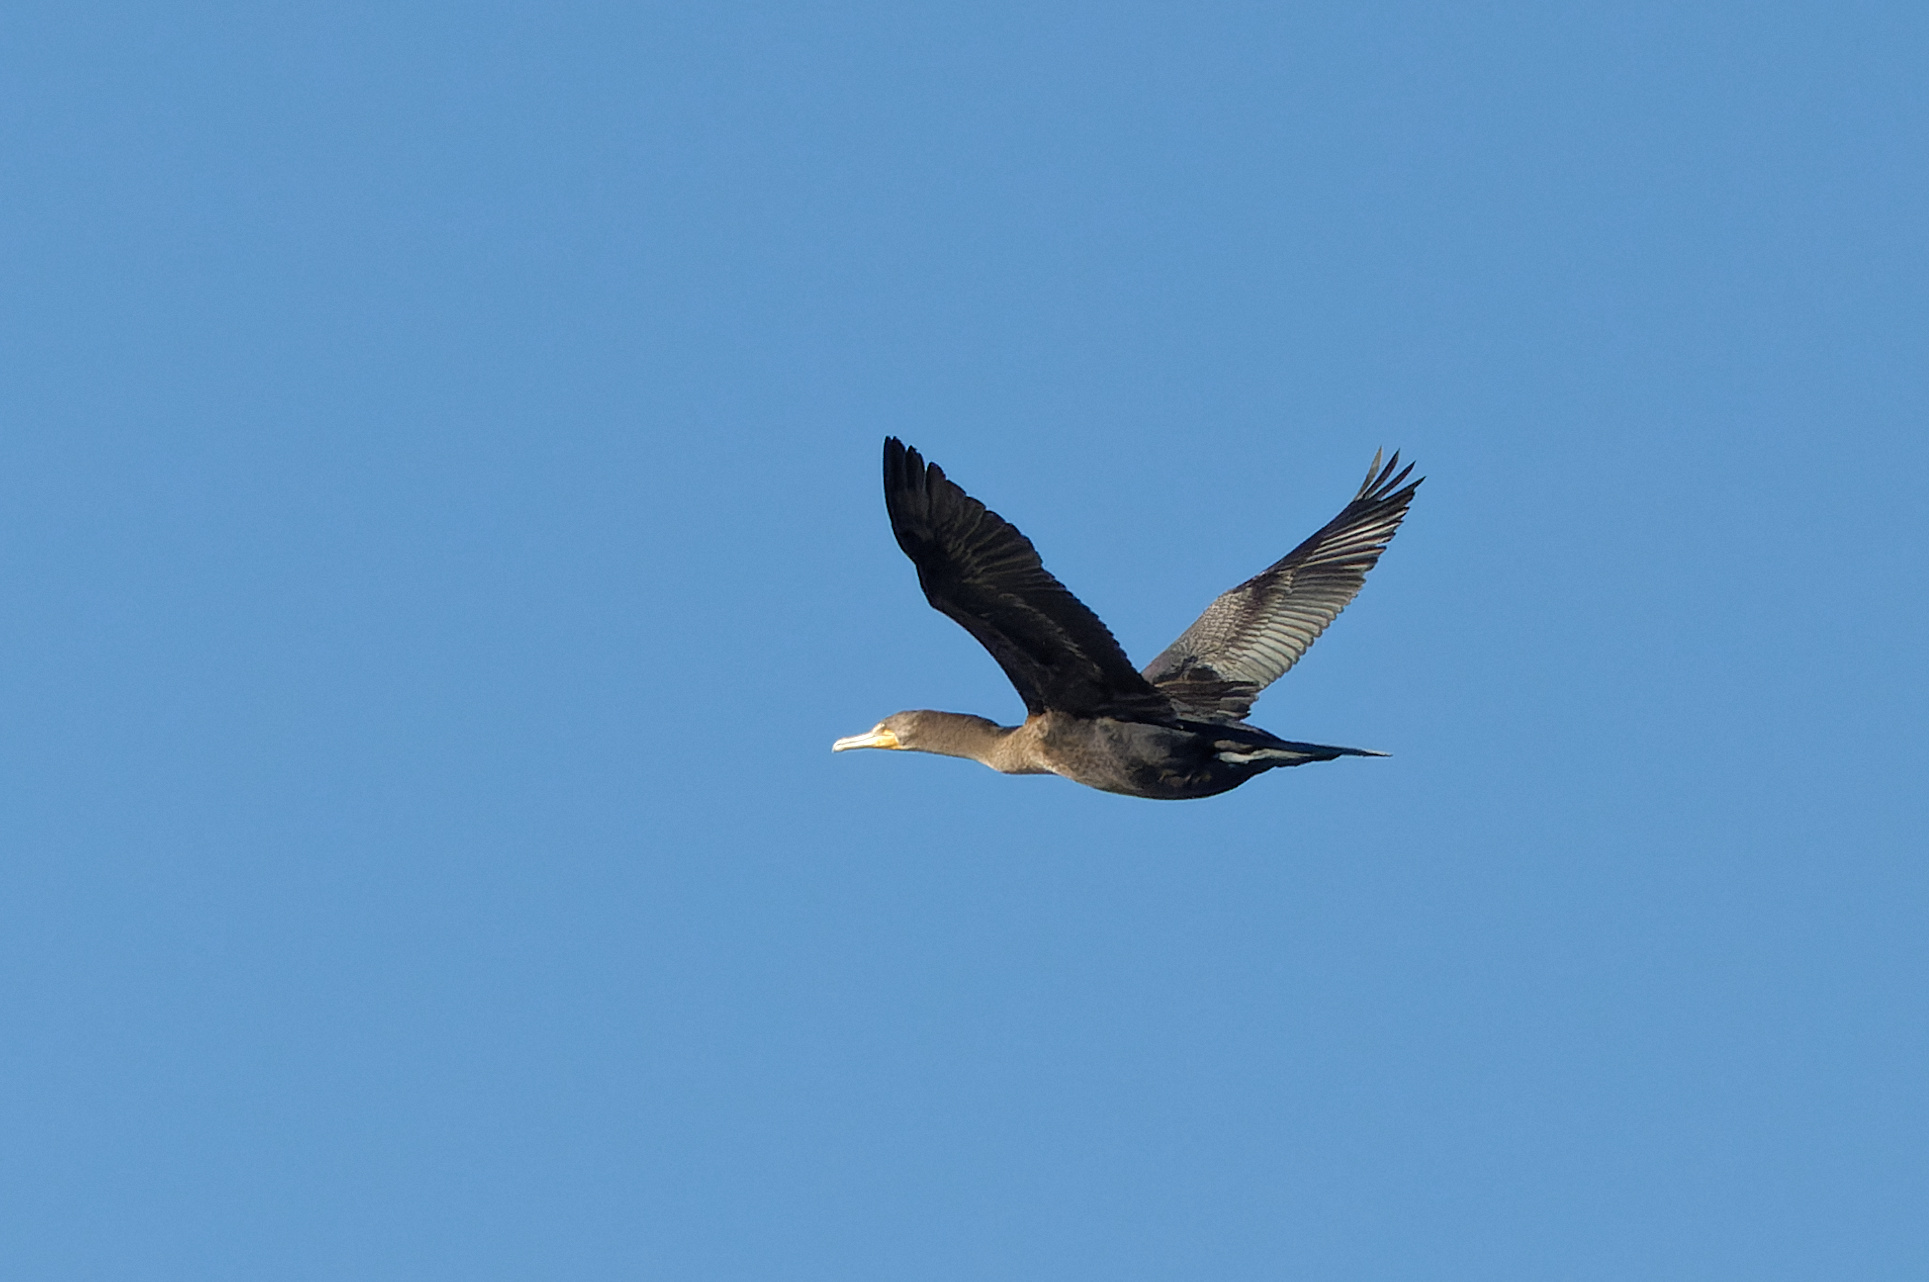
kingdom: Animalia
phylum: Chordata
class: Aves
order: Suliformes
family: Phalacrocoracidae
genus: Phalacrocorax
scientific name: Phalacrocorax auritus
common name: Double-crested cormorant
